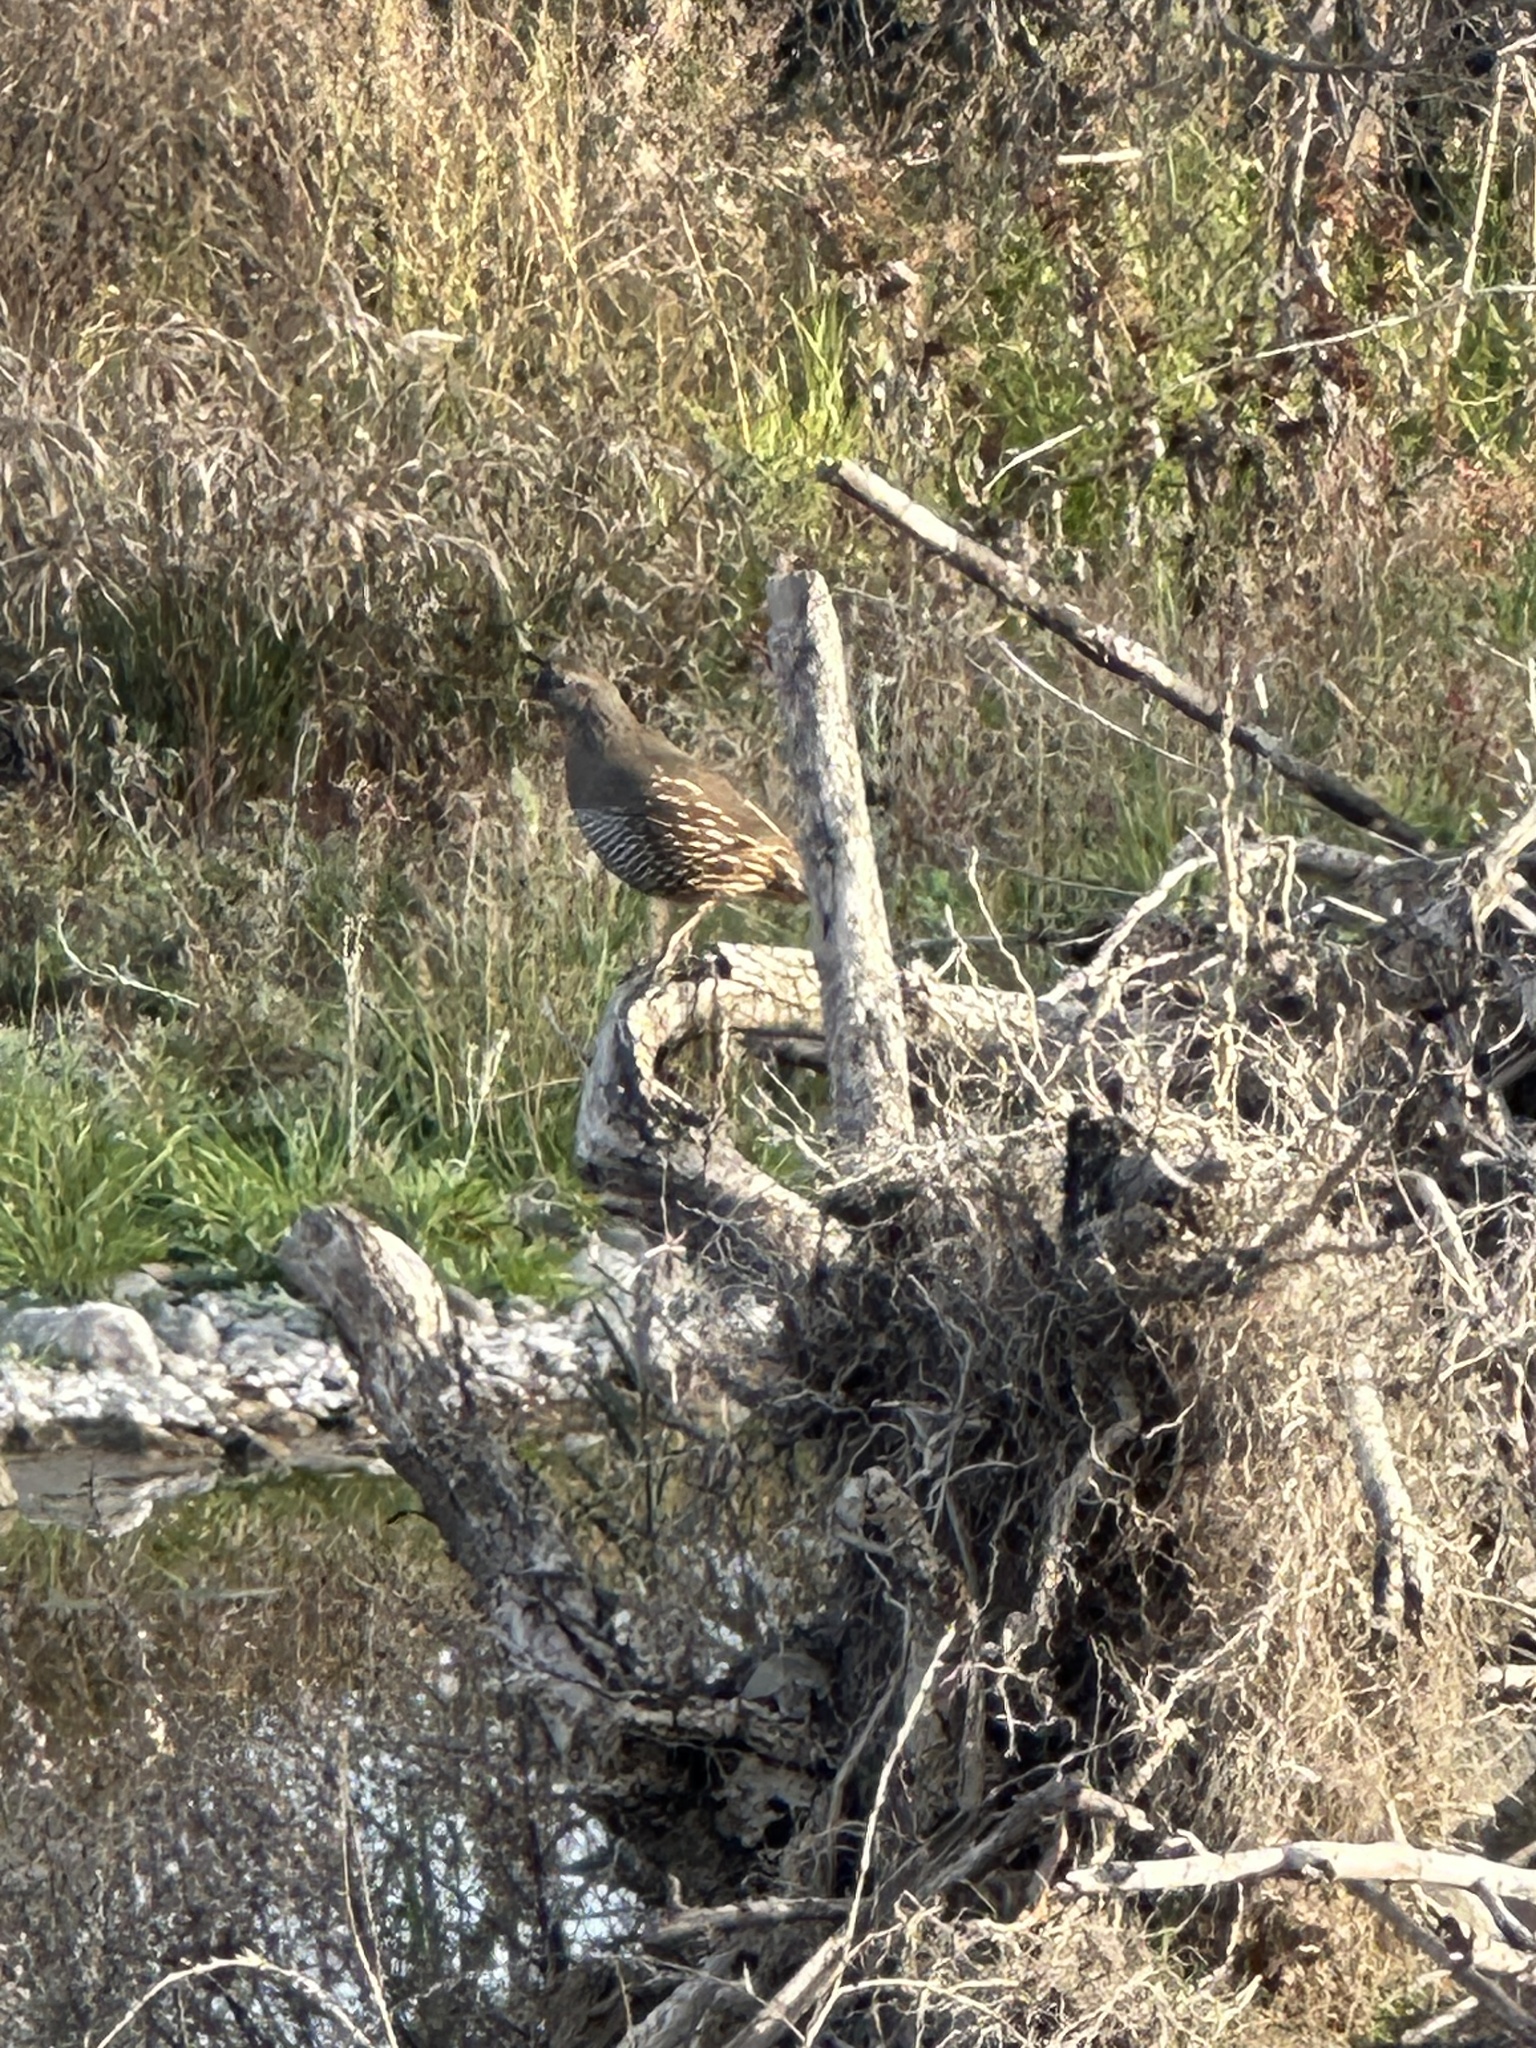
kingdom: Animalia
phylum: Chordata
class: Aves
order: Galliformes
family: Odontophoridae
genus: Callipepla
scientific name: Callipepla californica
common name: California quail
